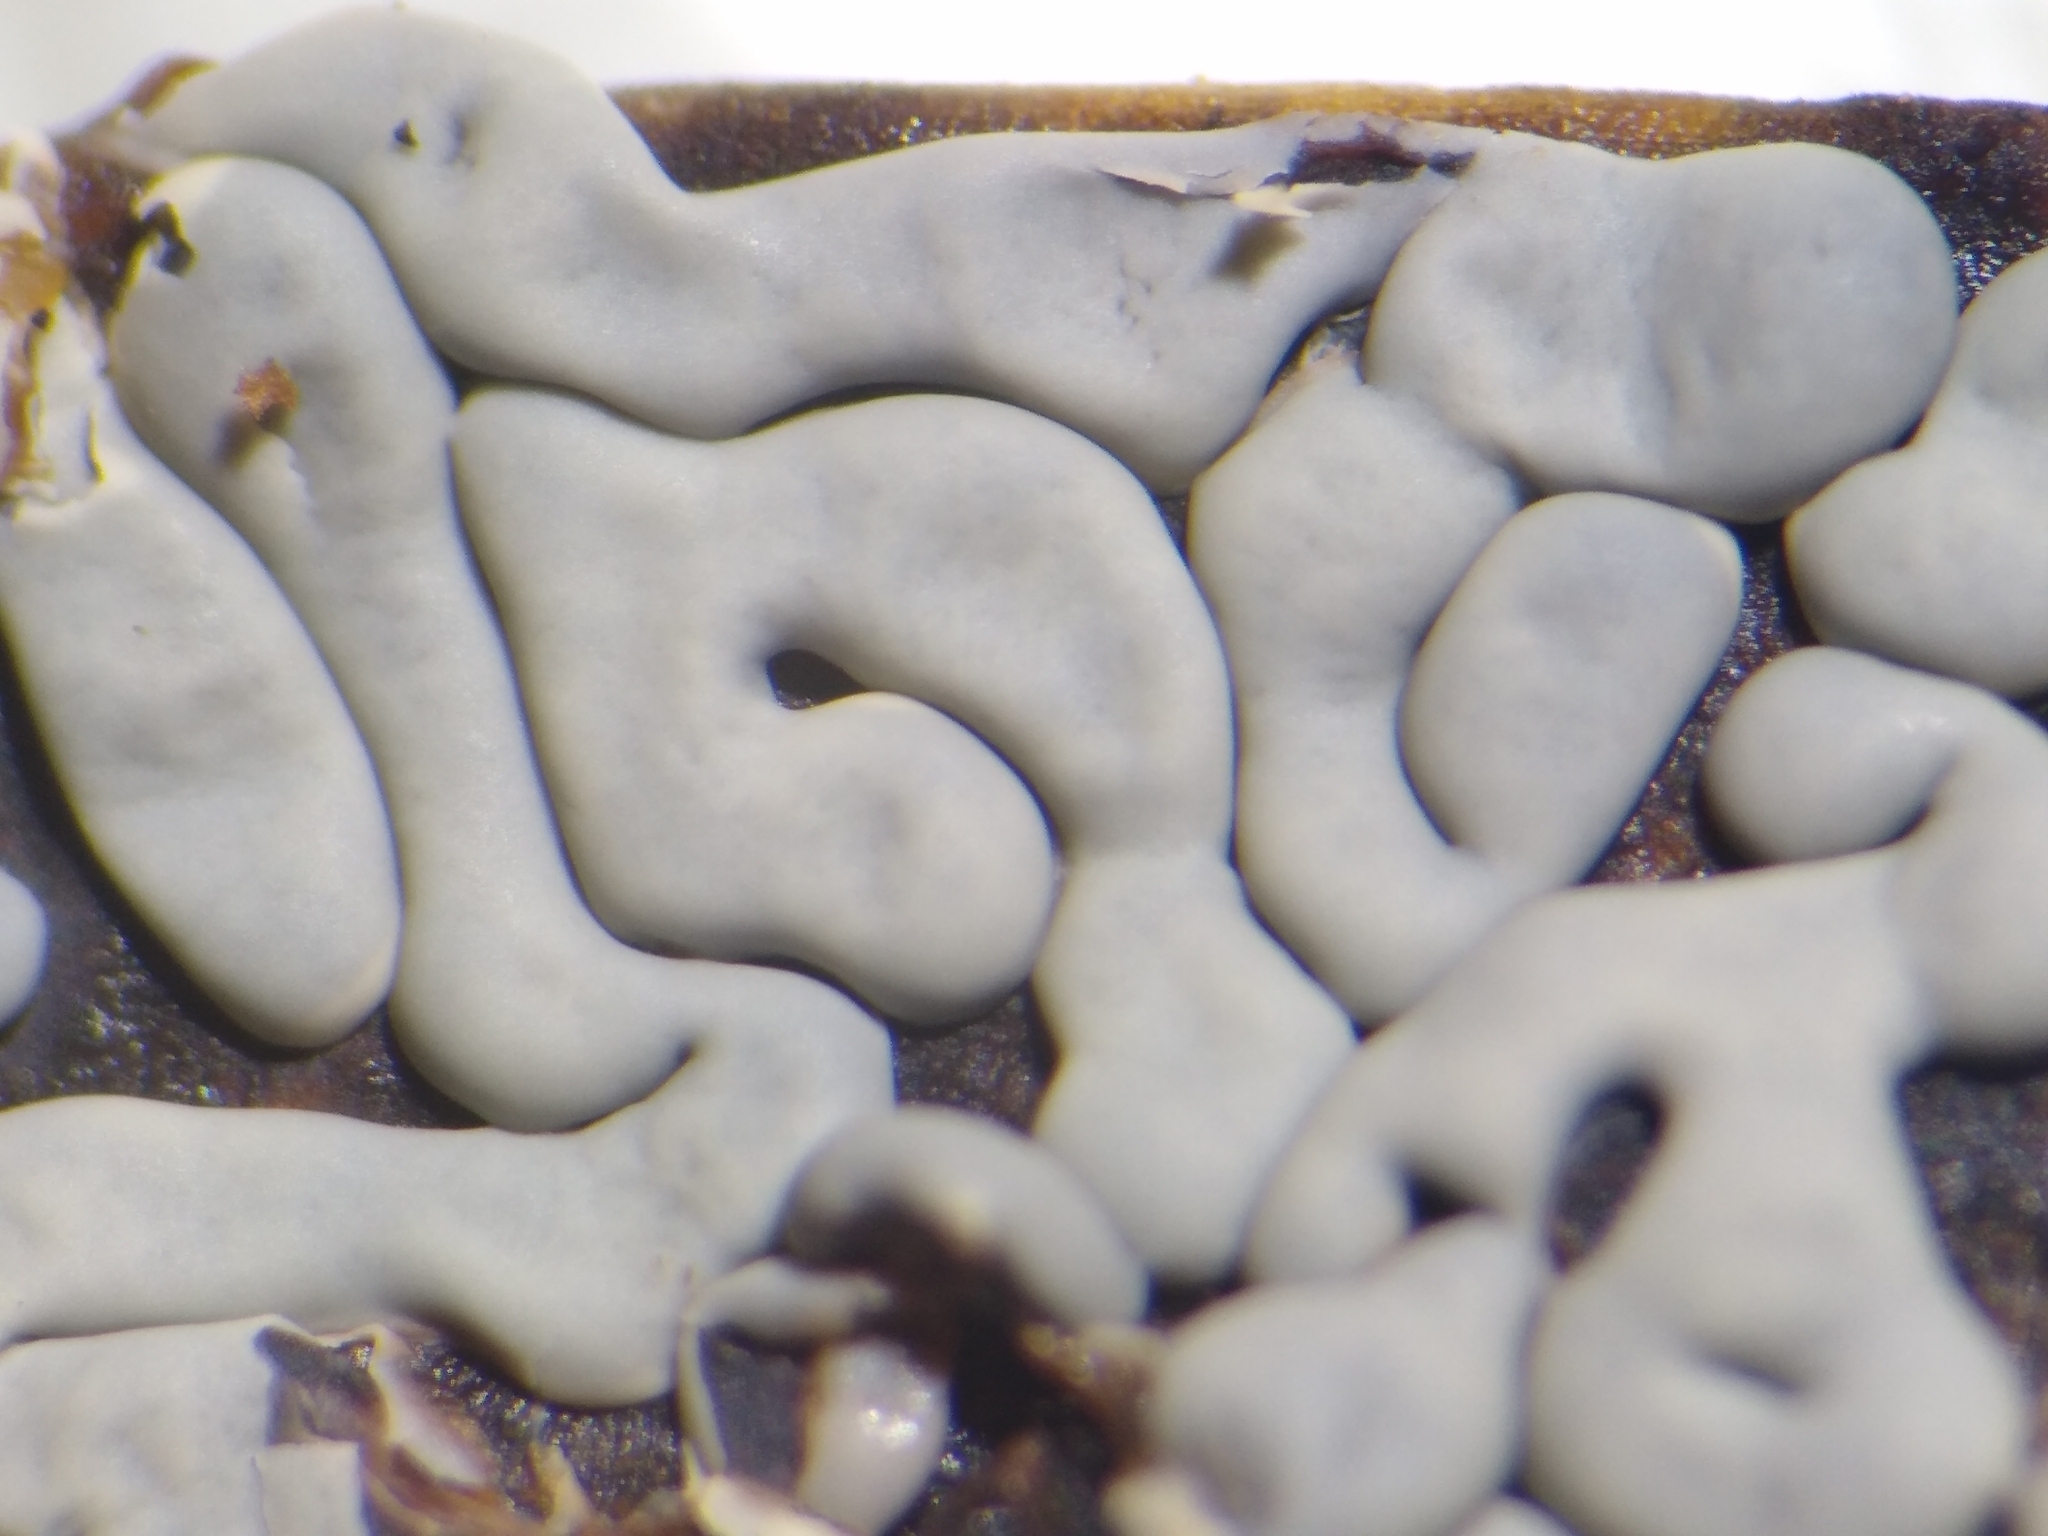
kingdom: Protozoa
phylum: Mycetozoa
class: Myxomycetes
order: Physarales
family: Didymiaceae
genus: Diderma
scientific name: Diderma effusum
